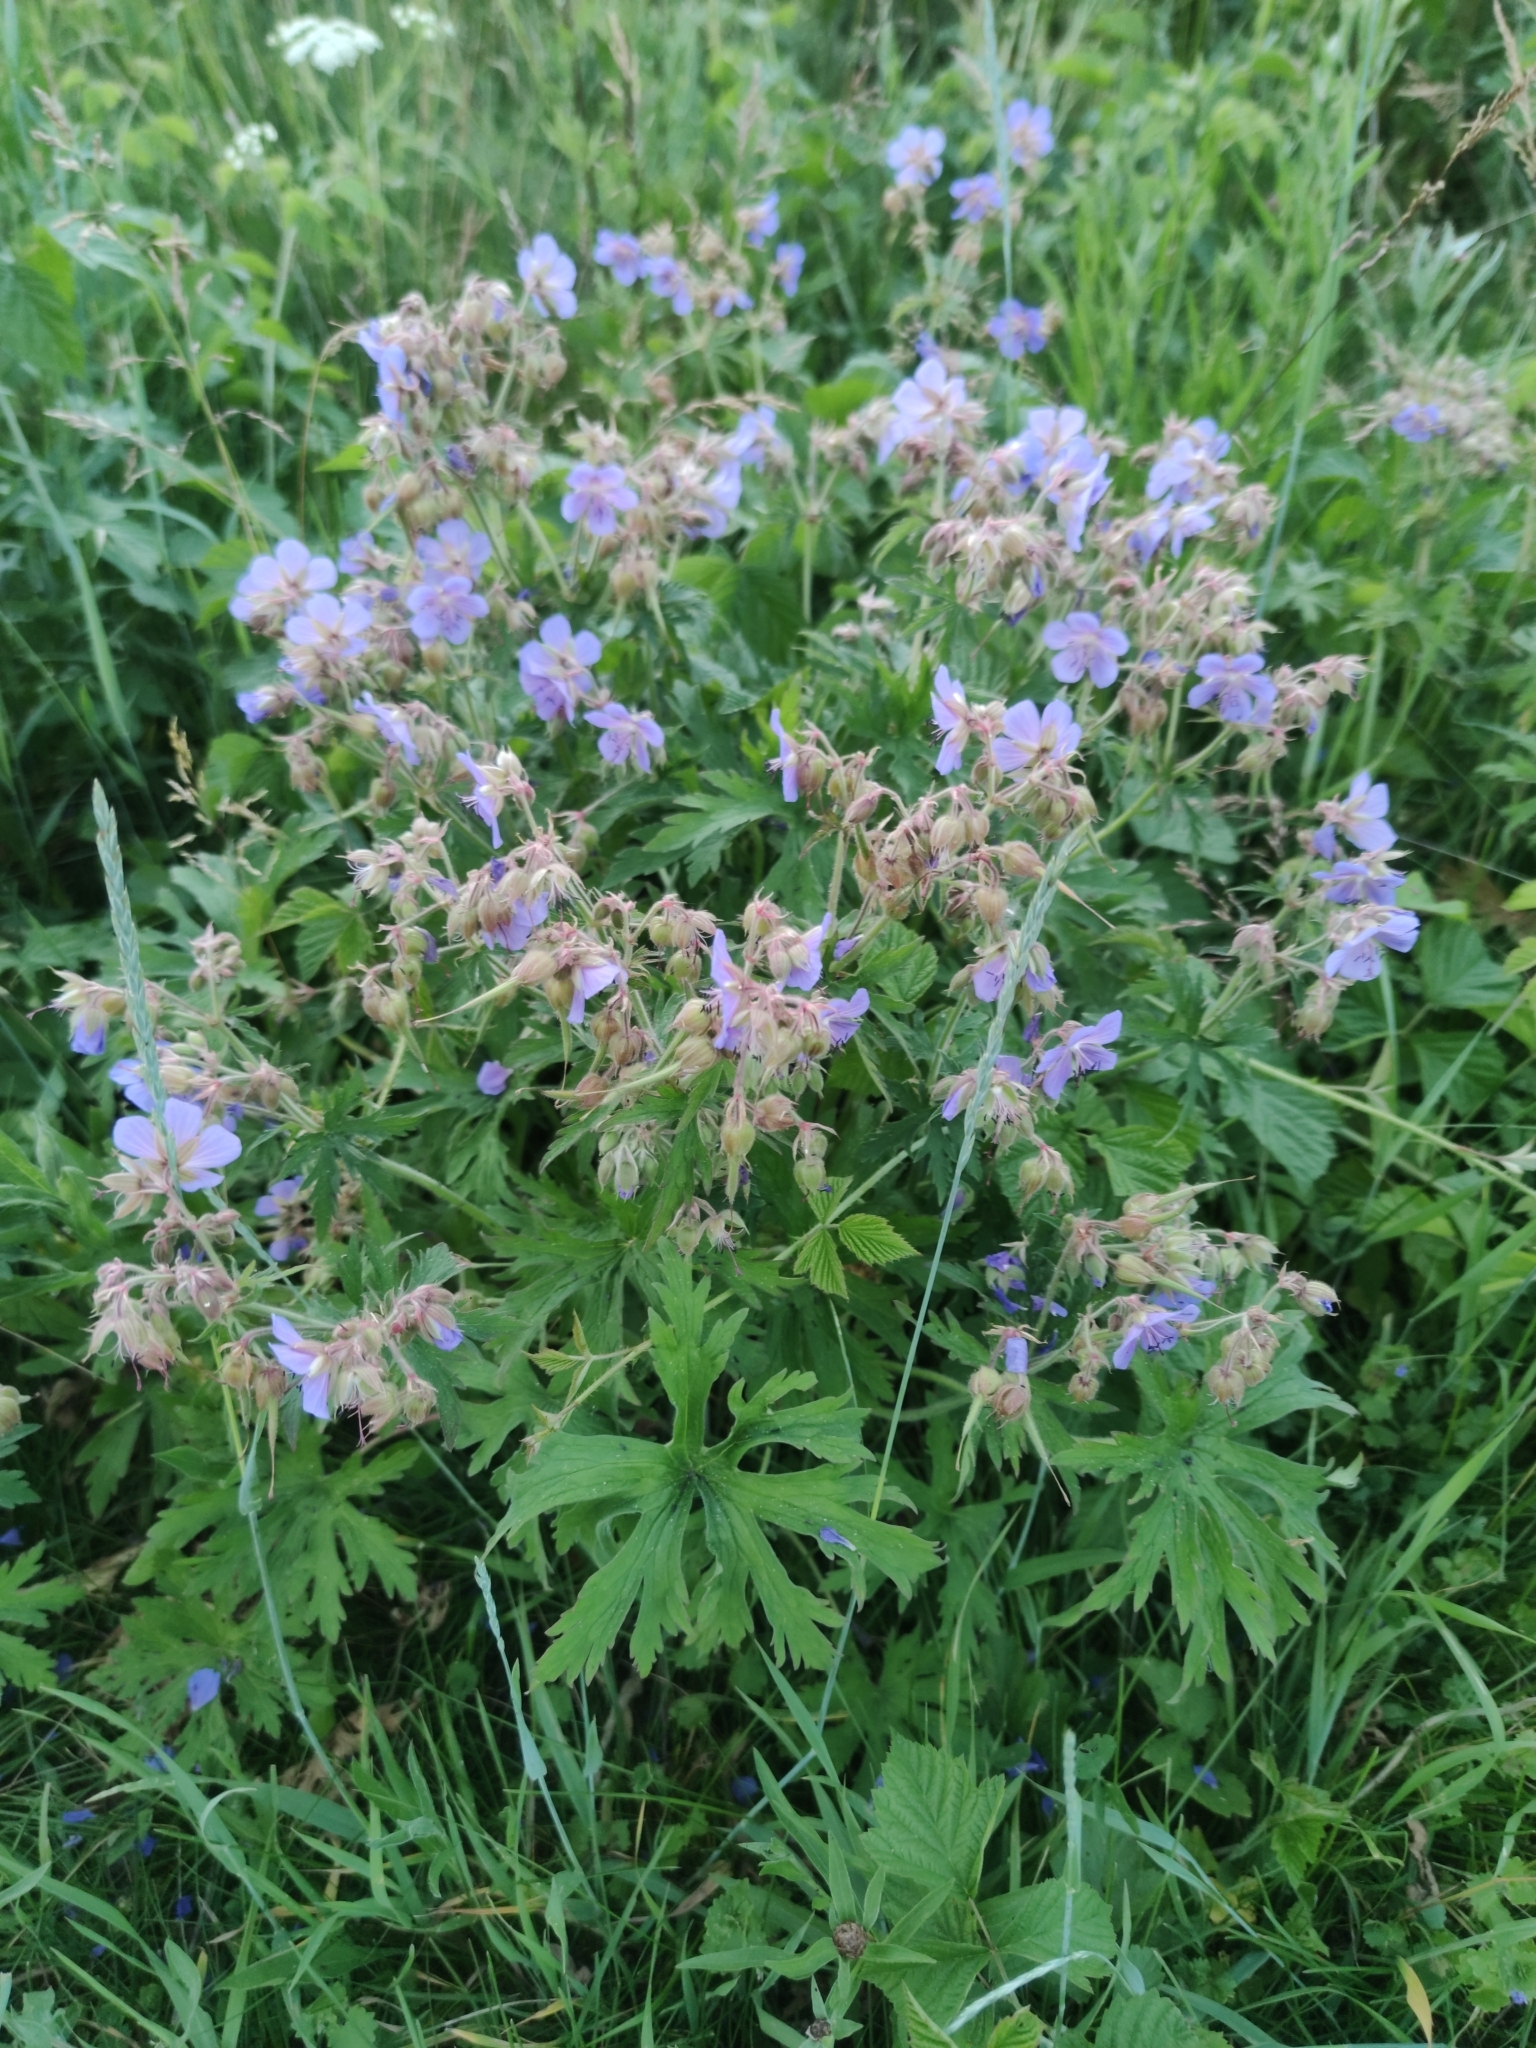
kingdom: Plantae
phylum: Tracheophyta
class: Magnoliopsida
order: Geraniales
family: Geraniaceae
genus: Geranium
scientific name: Geranium pratense
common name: Meadow crane's-bill
